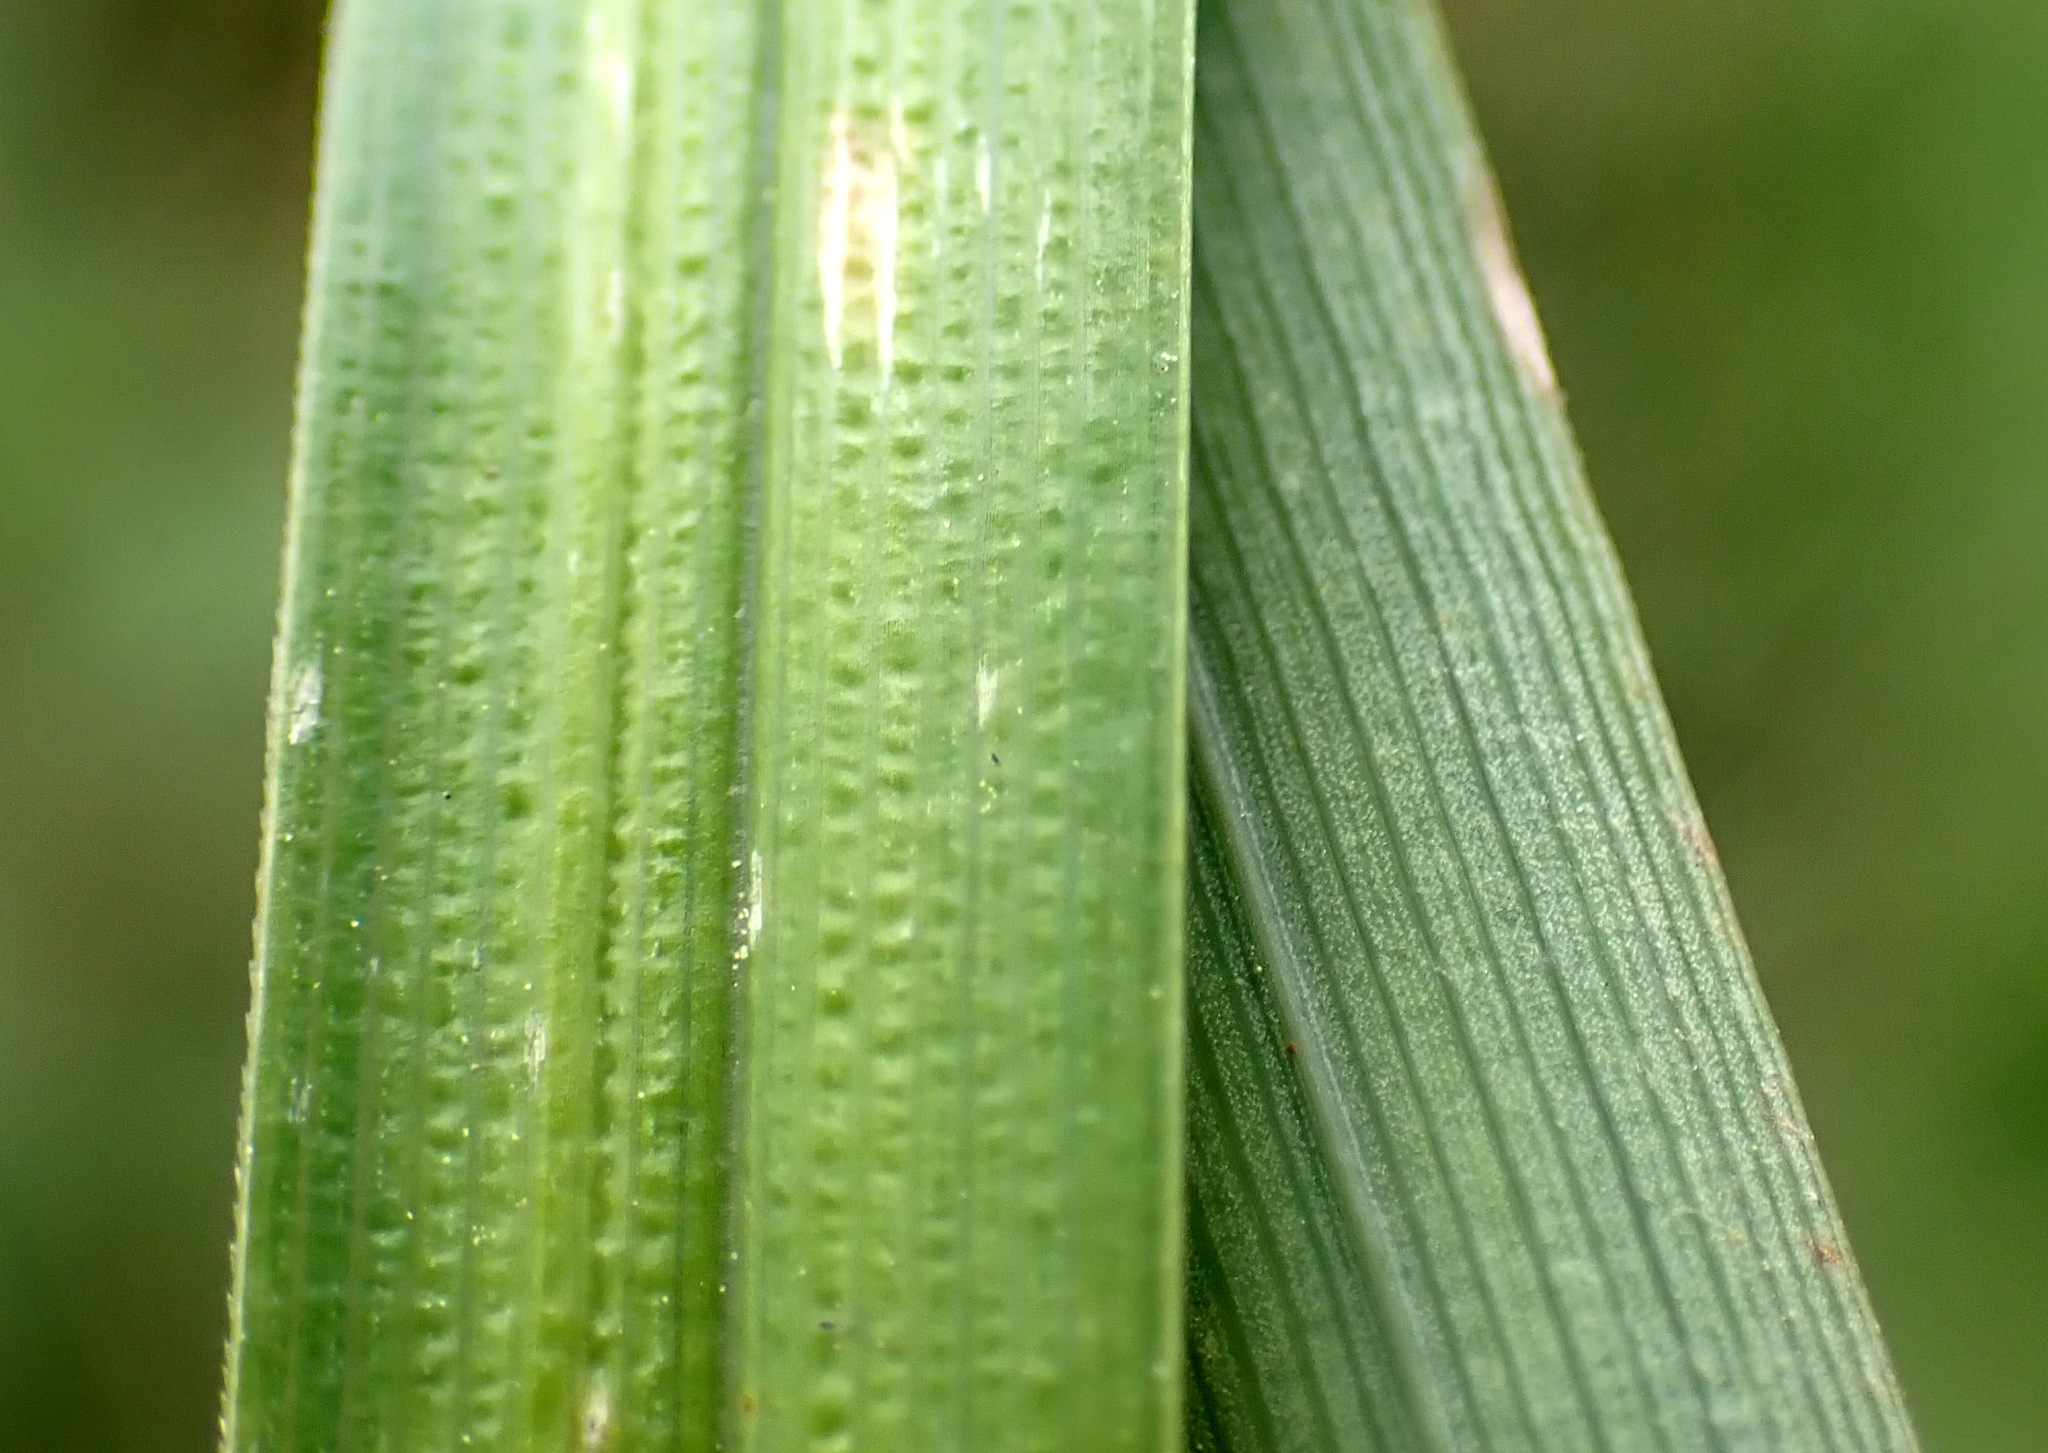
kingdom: Plantae
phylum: Tracheophyta
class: Liliopsida
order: Poales
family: Cyperaceae
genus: Carex
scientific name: Carex acuta
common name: Slender tufted-sedge
